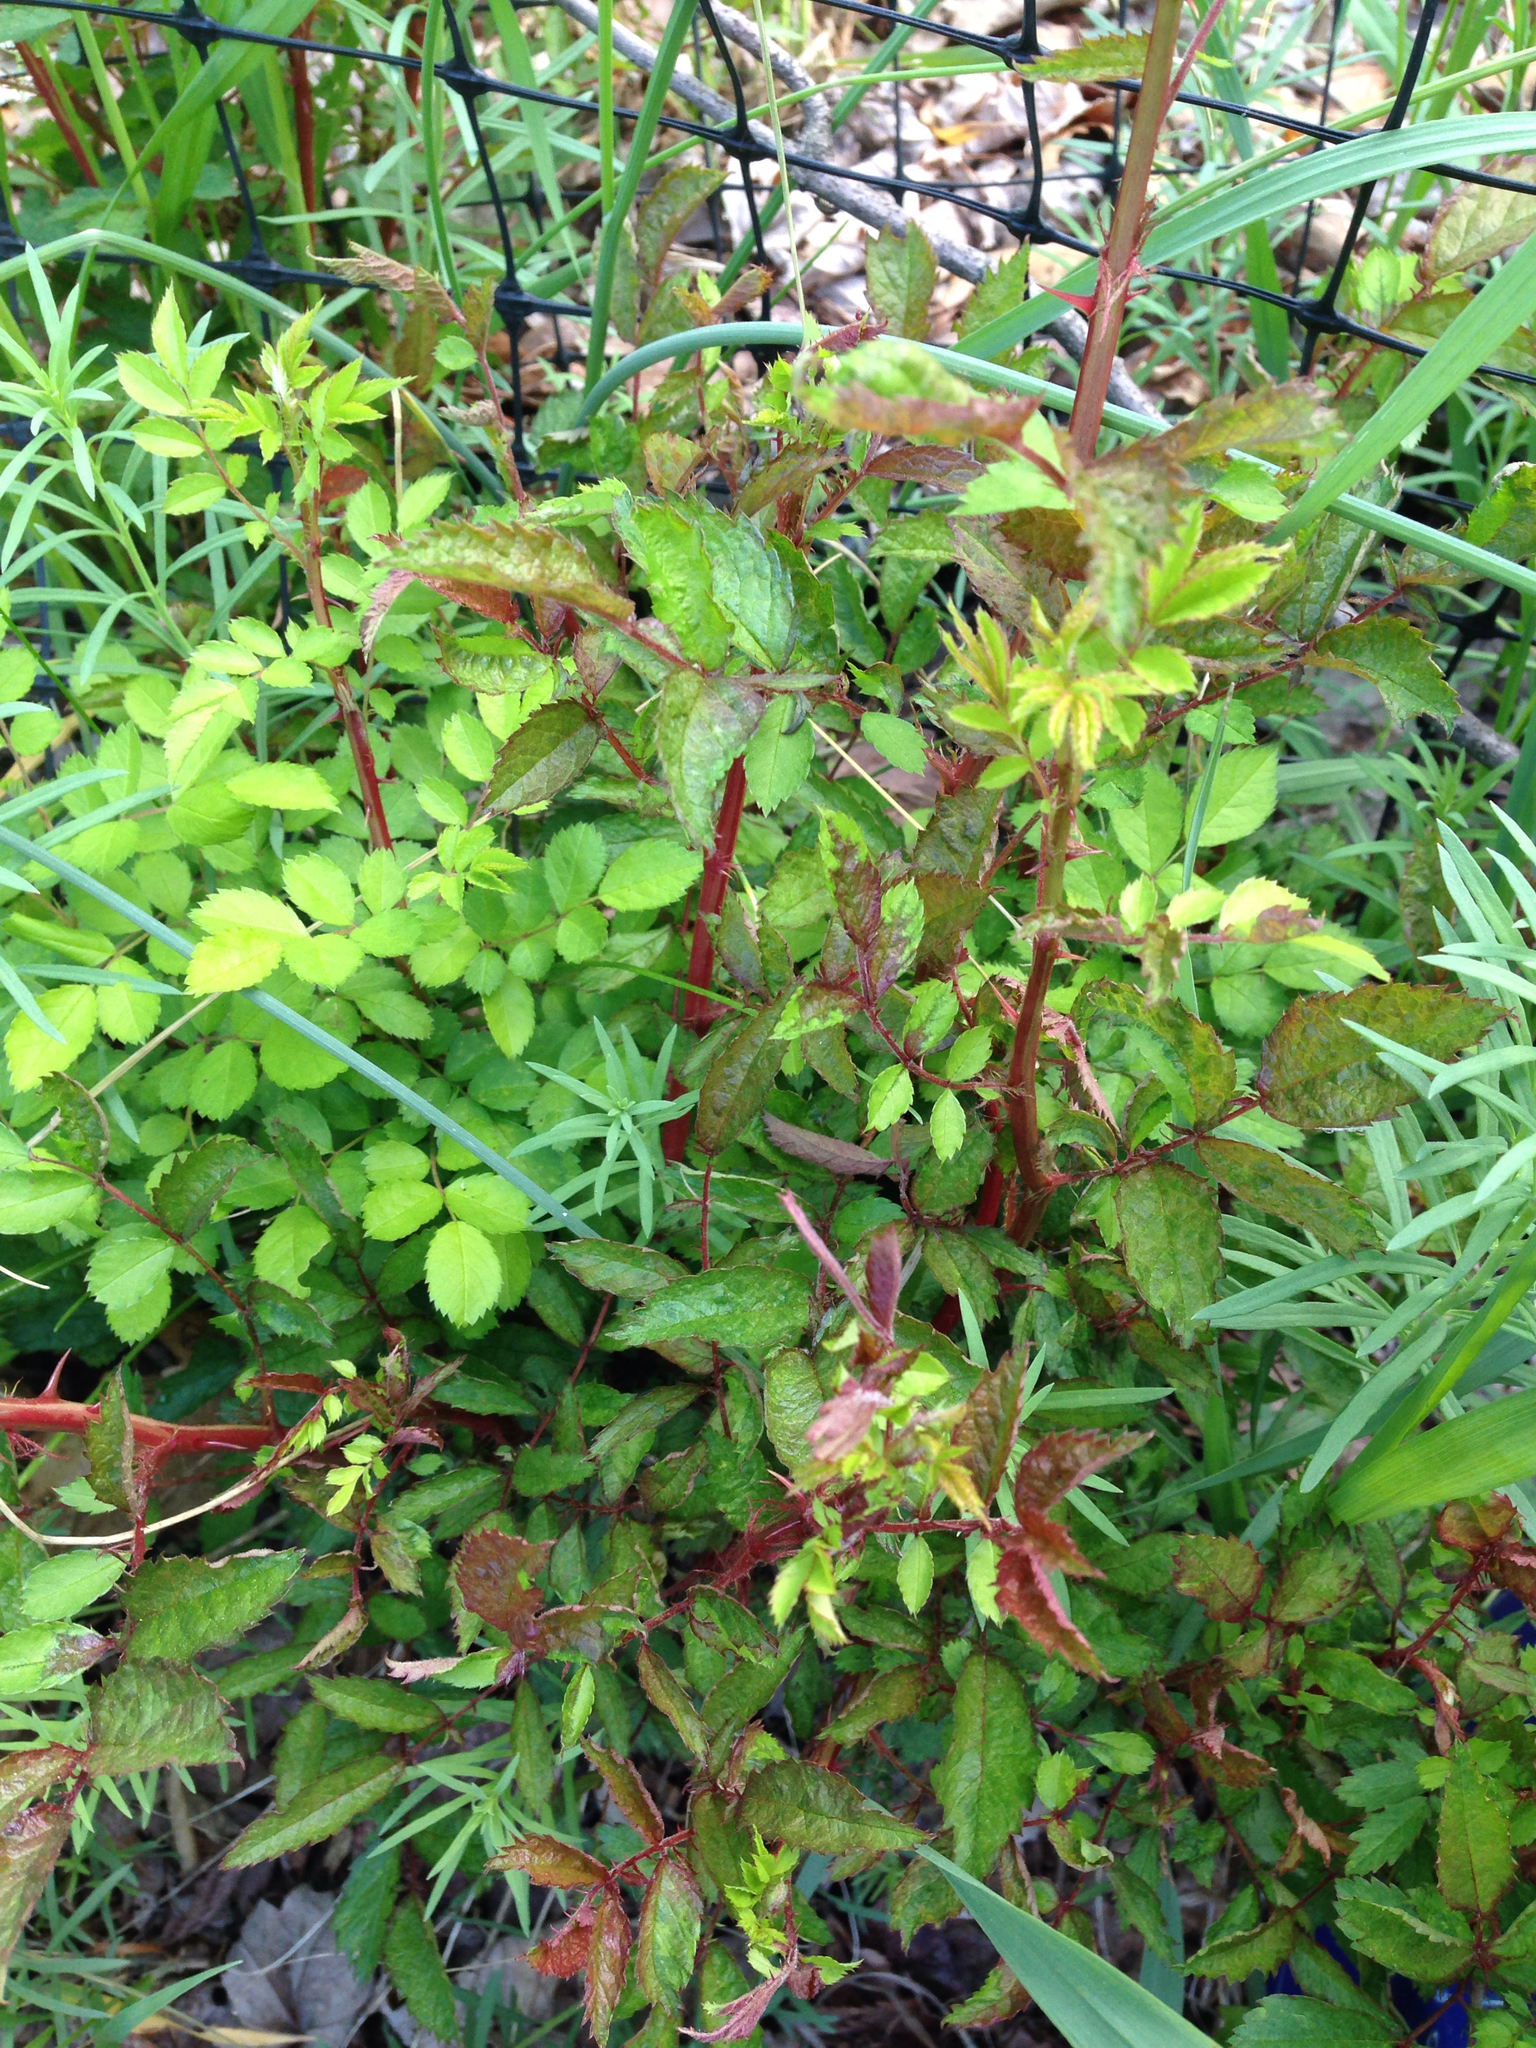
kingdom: Plantae
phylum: Tracheophyta
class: Magnoliopsida
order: Rosales
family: Rosaceae
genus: Rosa
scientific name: Rosa multiflora
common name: Multiflora rose
